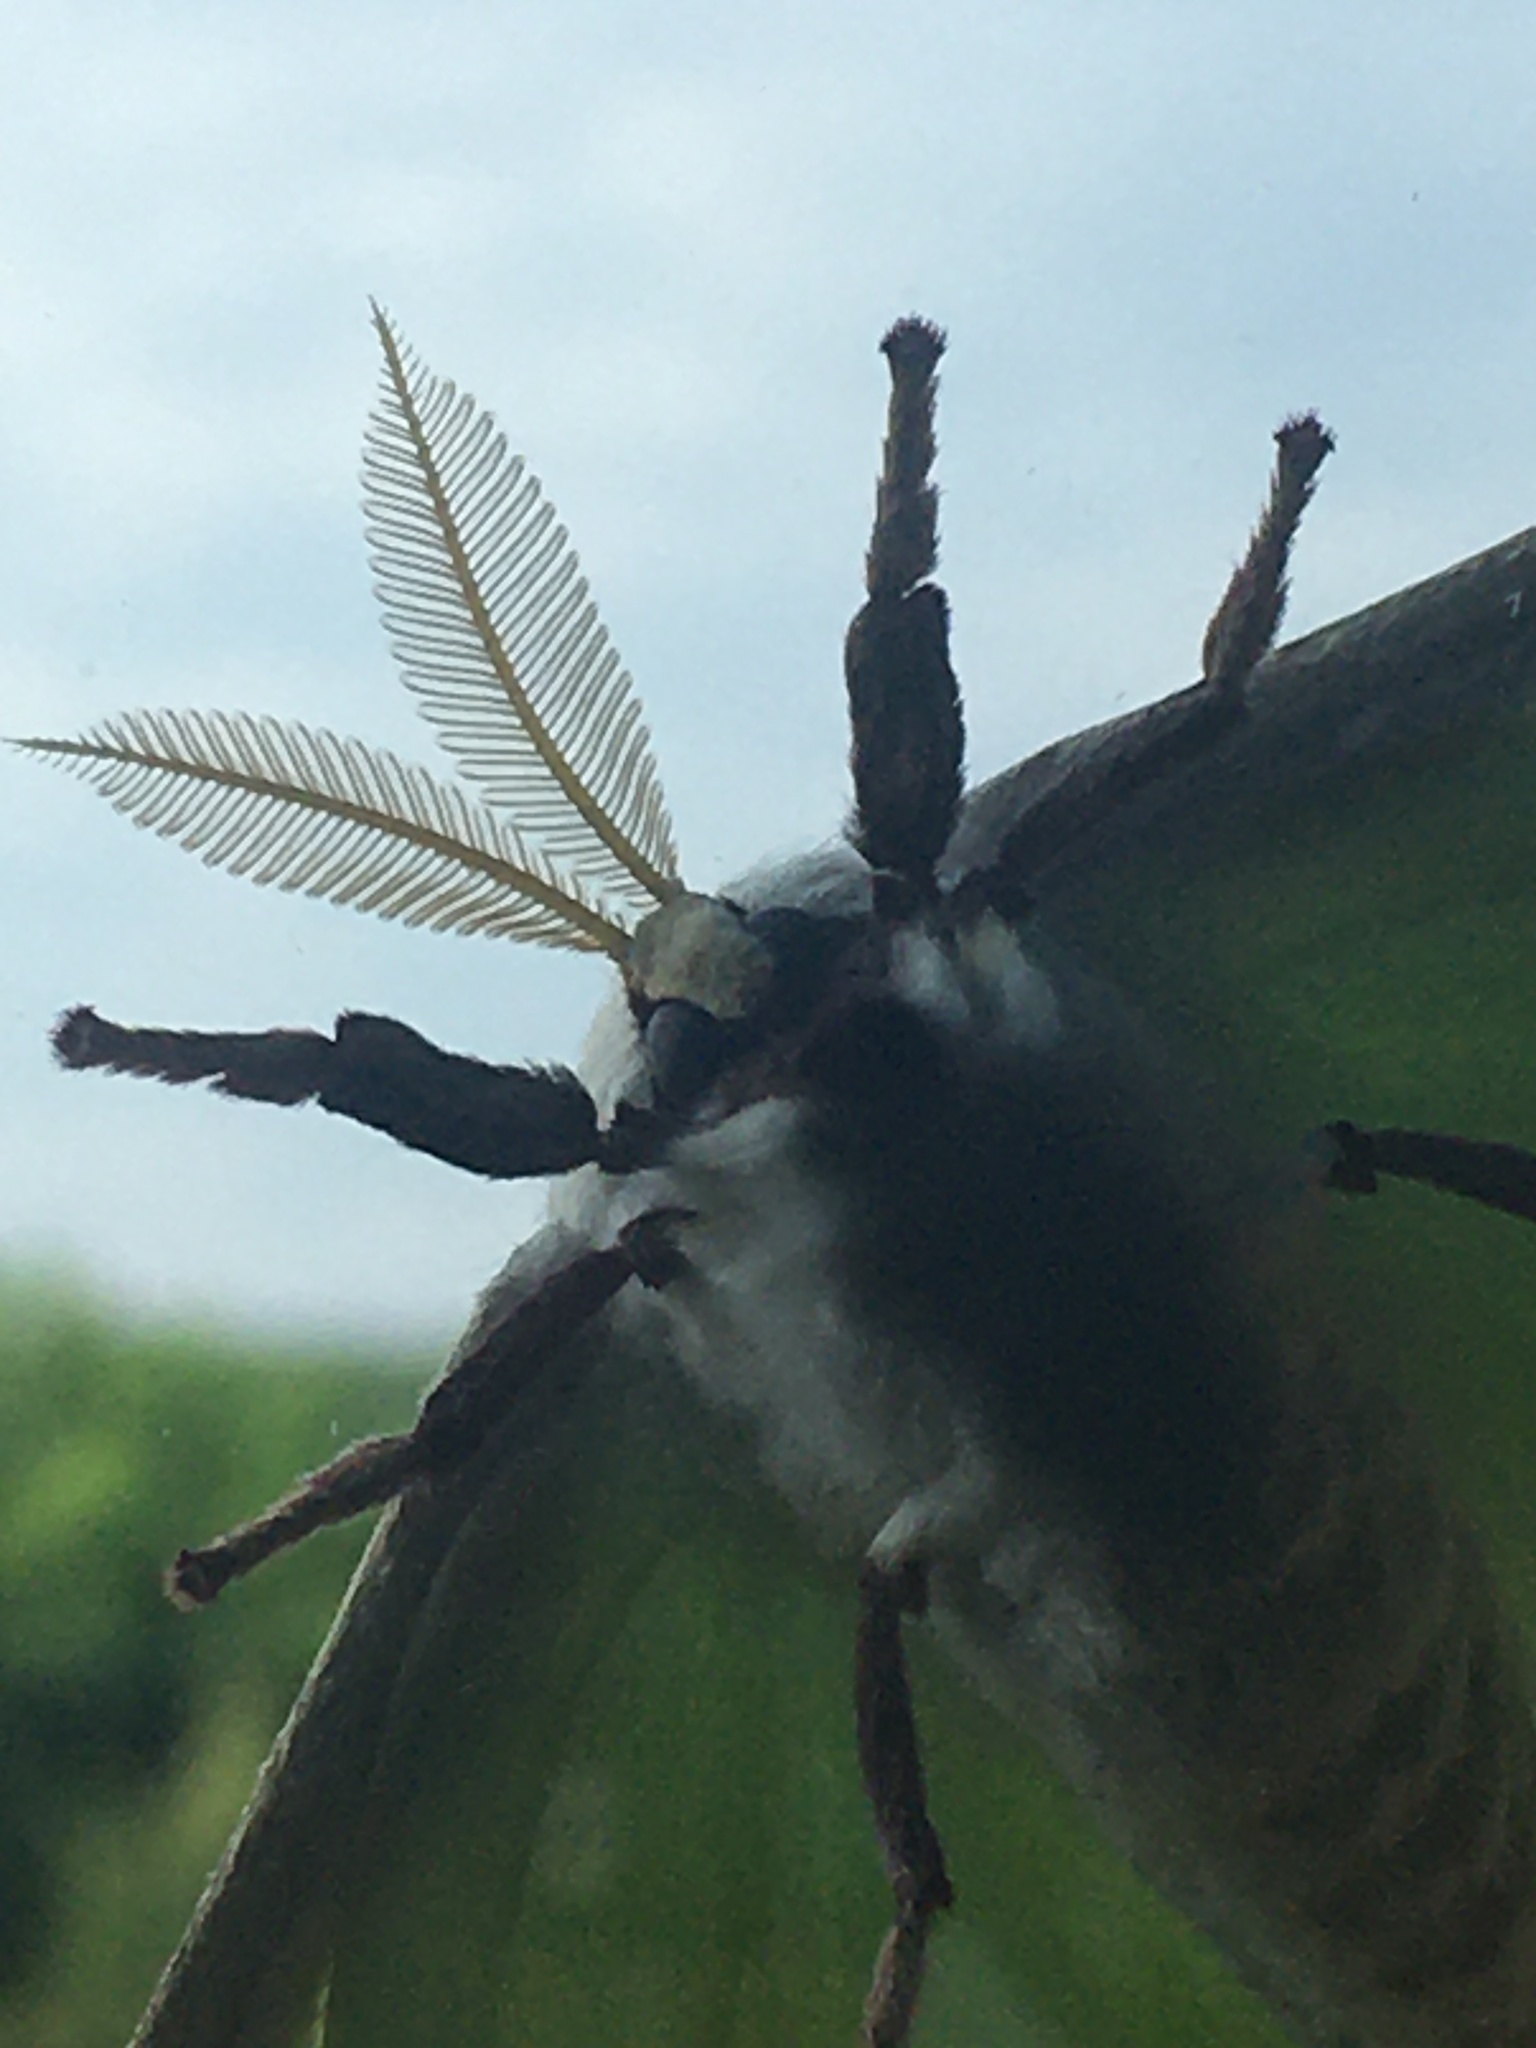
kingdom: Animalia
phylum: Arthropoda
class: Insecta
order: Lepidoptera
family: Saturniidae
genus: Actias
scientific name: Actias luna
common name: Luna moth
